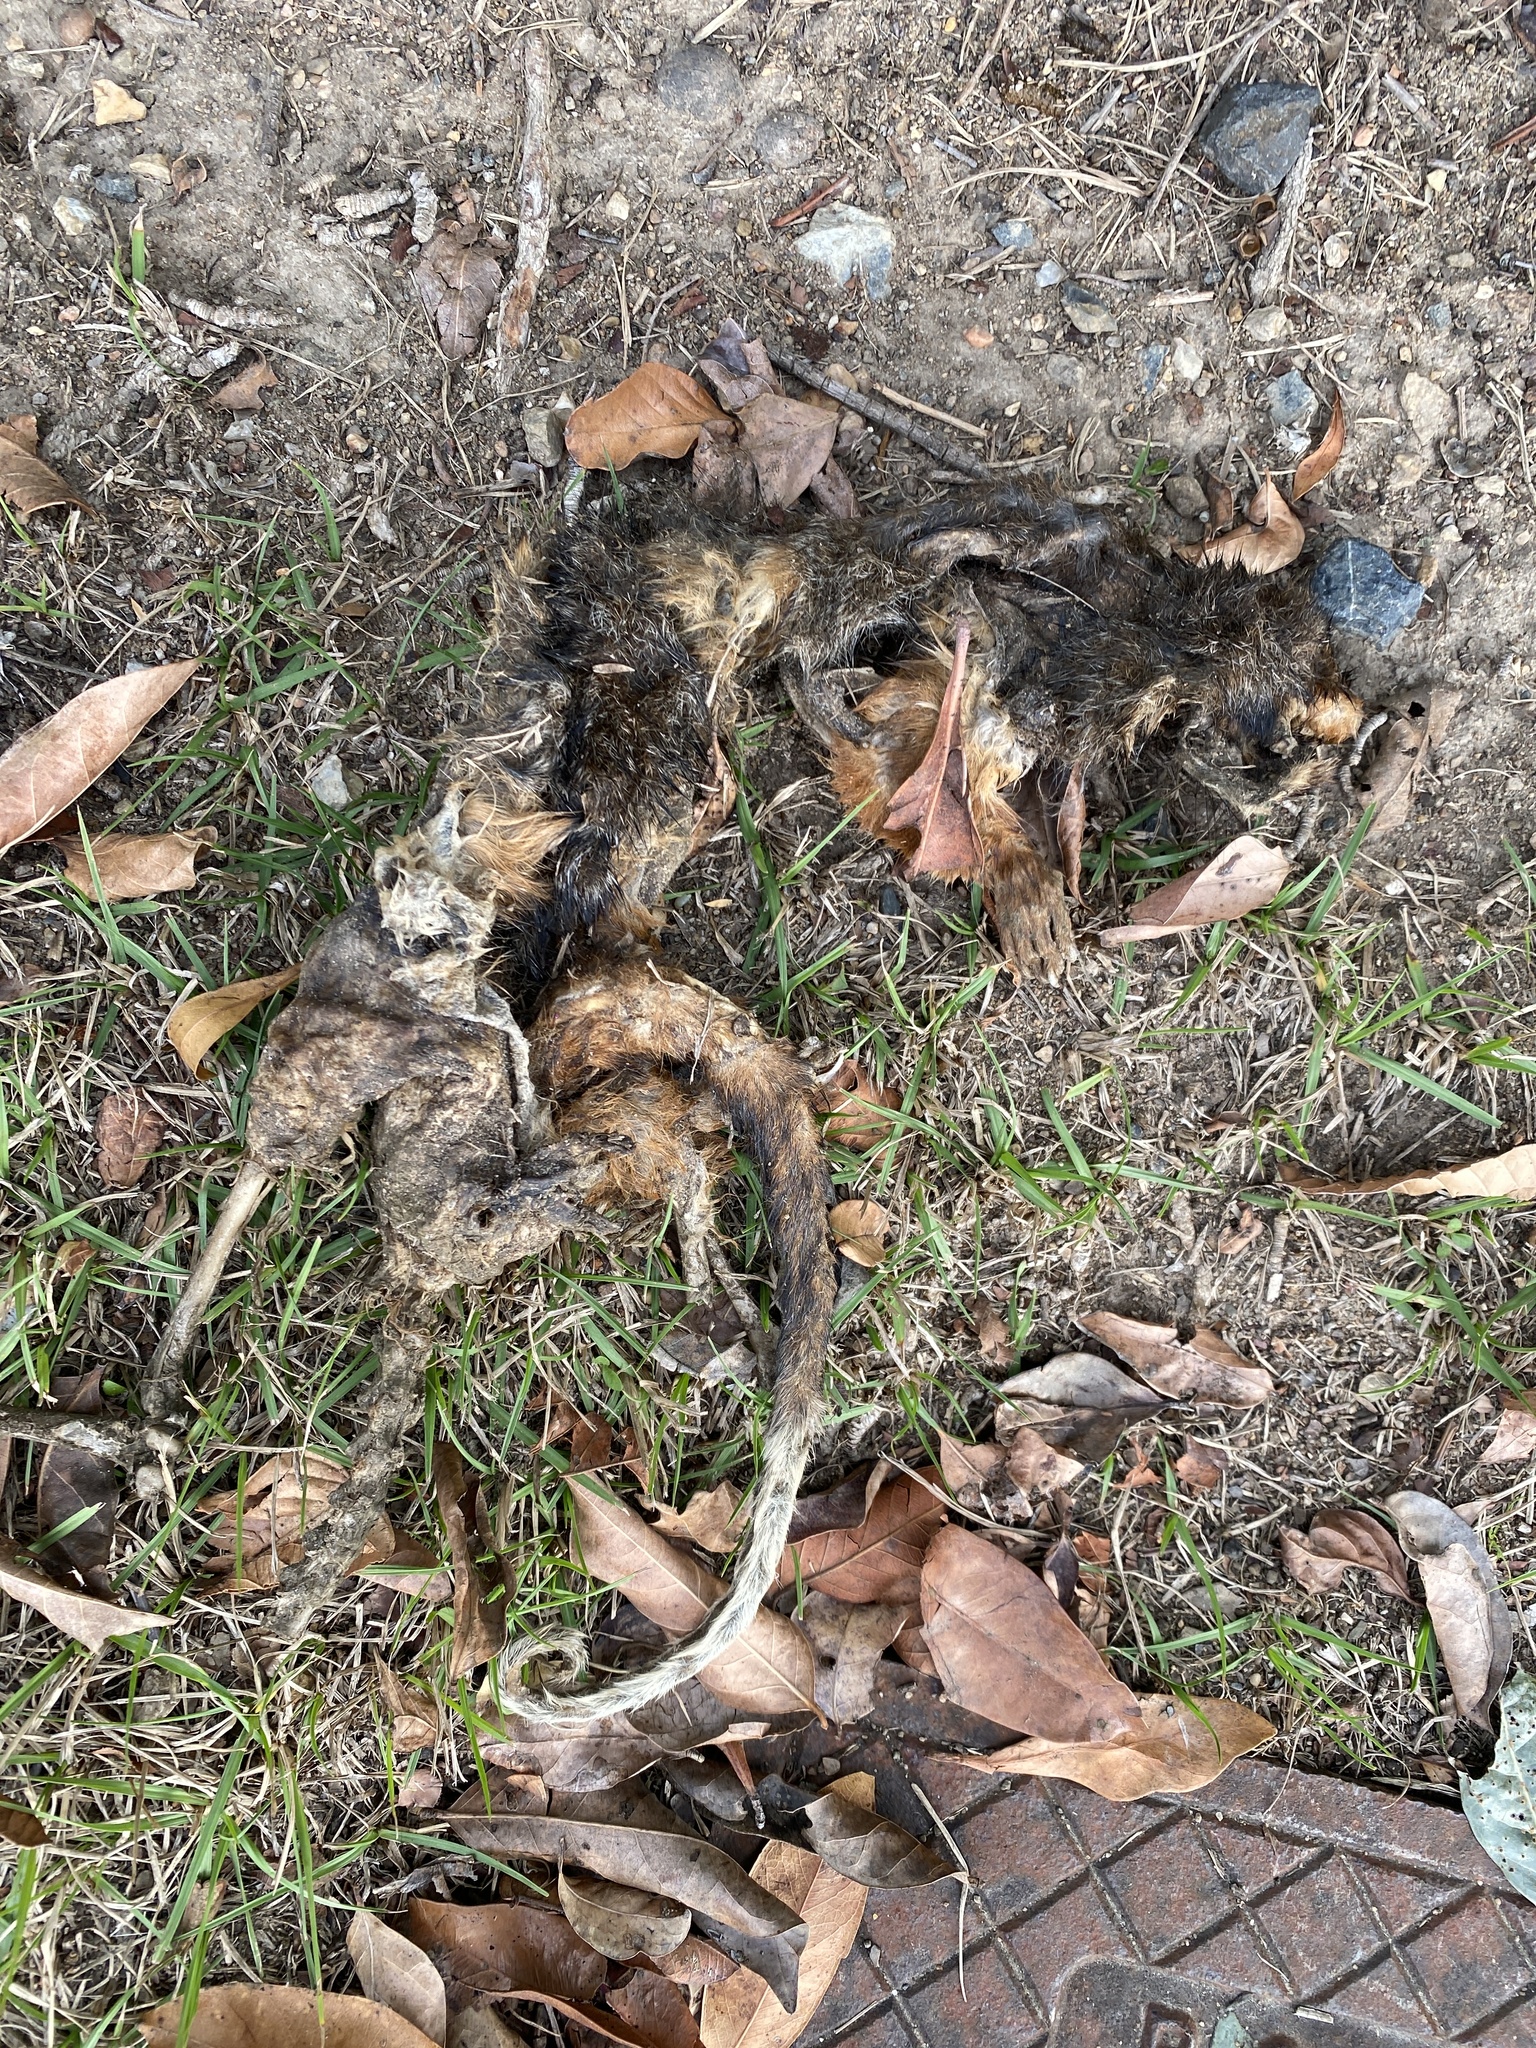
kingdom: Animalia
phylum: Chordata
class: Mammalia
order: Diprotodontia
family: Pseudocheiridae
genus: Pseudocheirus
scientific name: Pseudocheirus peregrinus
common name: Common ringtail possum
